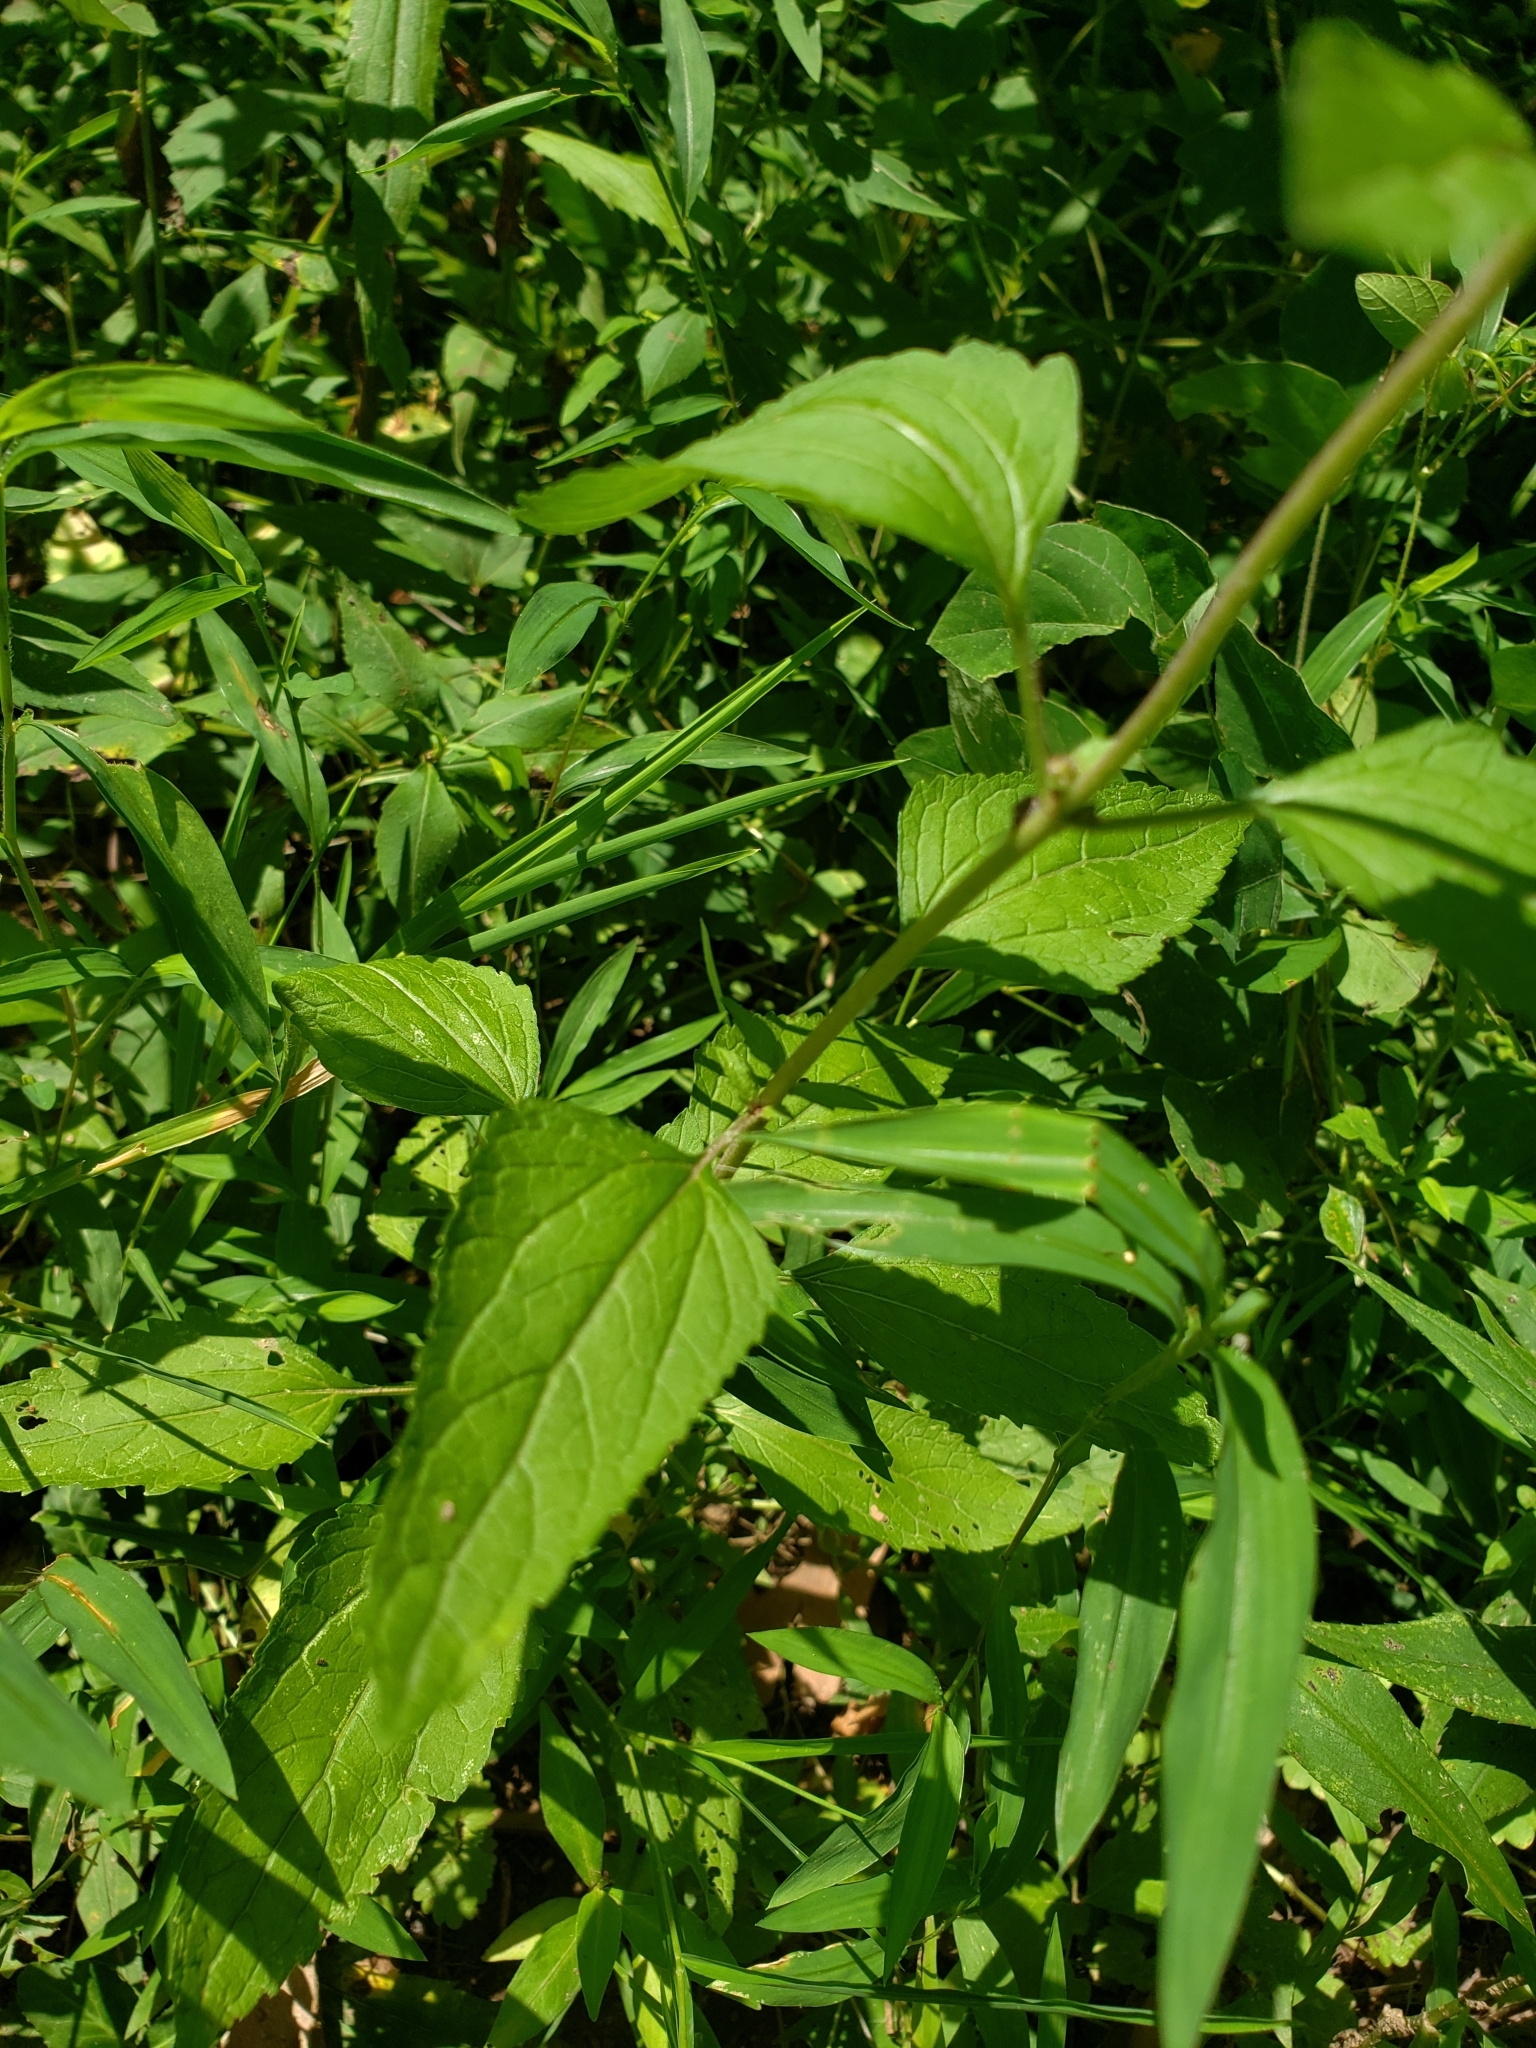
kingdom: Plantae
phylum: Tracheophyta
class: Magnoliopsida
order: Asterales
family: Asteraceae
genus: Conoclinium
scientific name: Conoclinium coelestinum
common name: Blue mistflower
